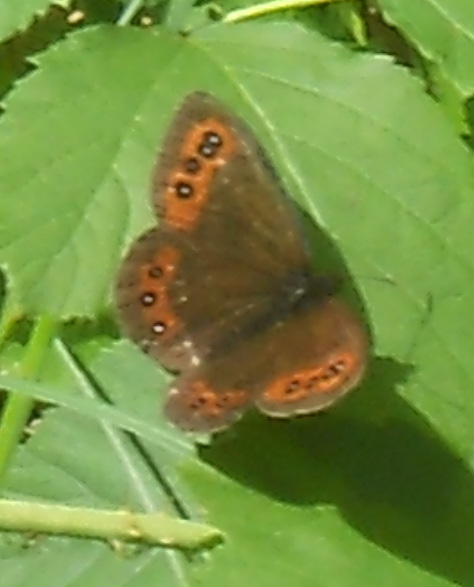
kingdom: Animalia
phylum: Arthropoda
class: Insecta
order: Lepidoptera
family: Nymphalidae
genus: Erebia
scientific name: Erebia ligea
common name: Arran brown
